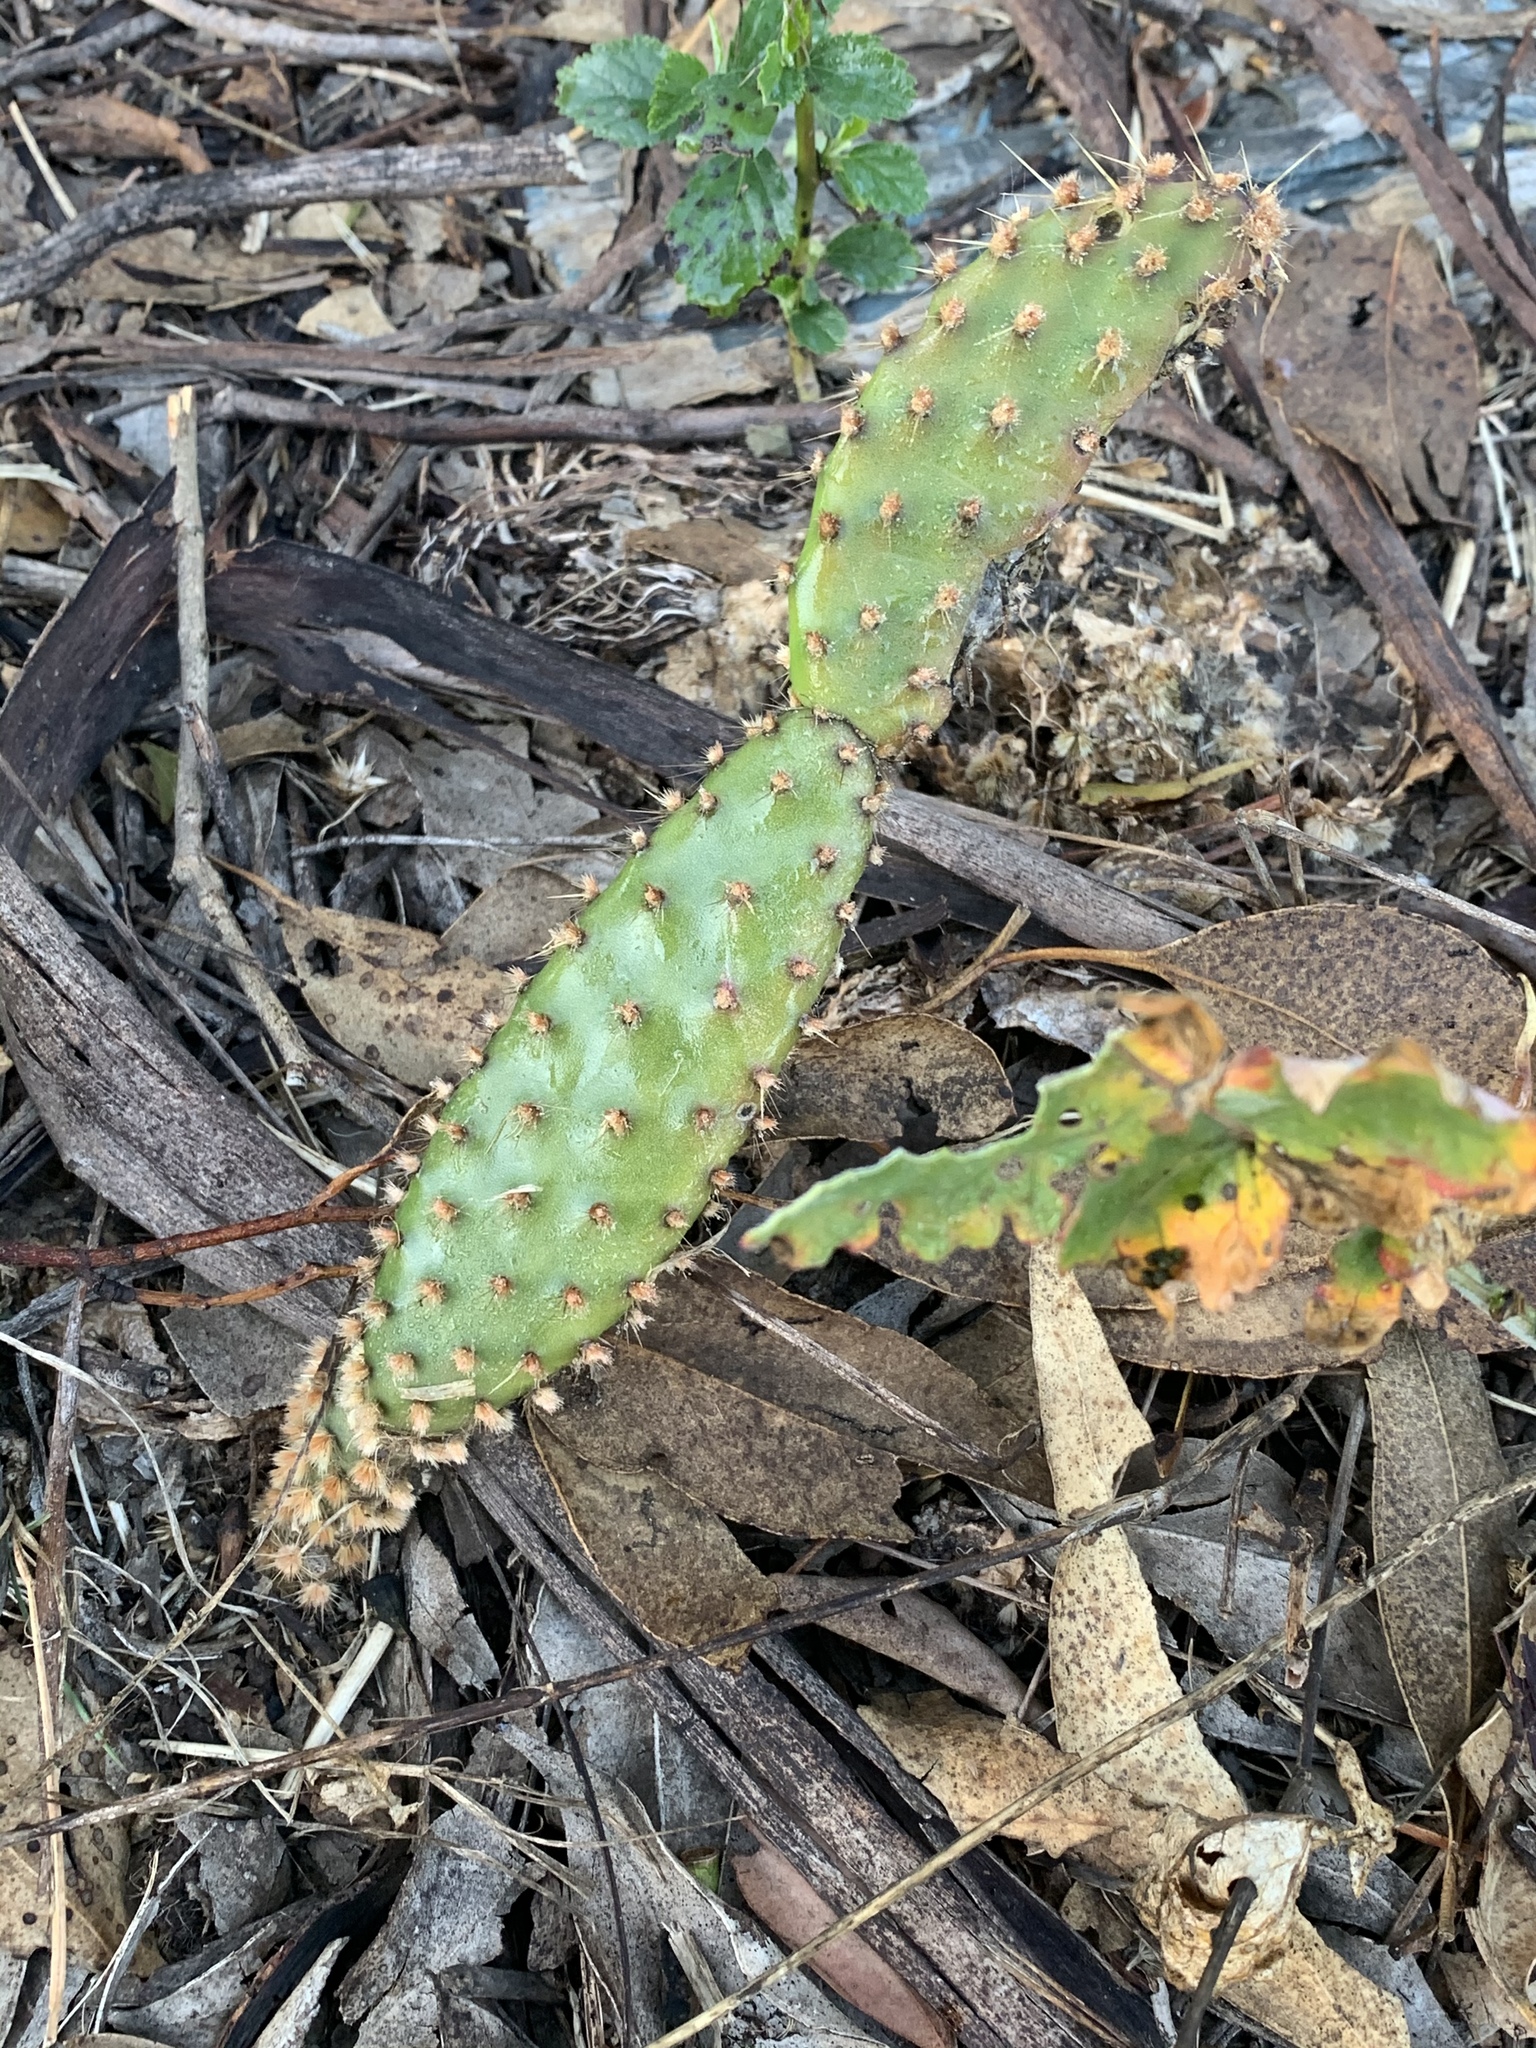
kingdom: Plantae
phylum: Tracheophyta
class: Magnoliopsida
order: Caryophyllales
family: Cactaceae
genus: Opuntia
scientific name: Opuntia puberula
